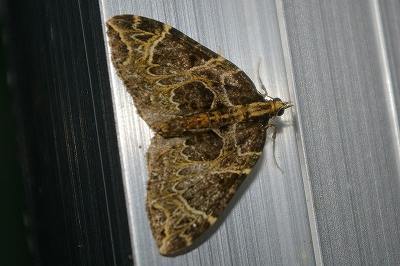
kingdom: Animalia
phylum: Arthropoda
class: Insecta
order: Lepidoptera
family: Geometridae
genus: Eustroma
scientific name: Eustroma melancholica
